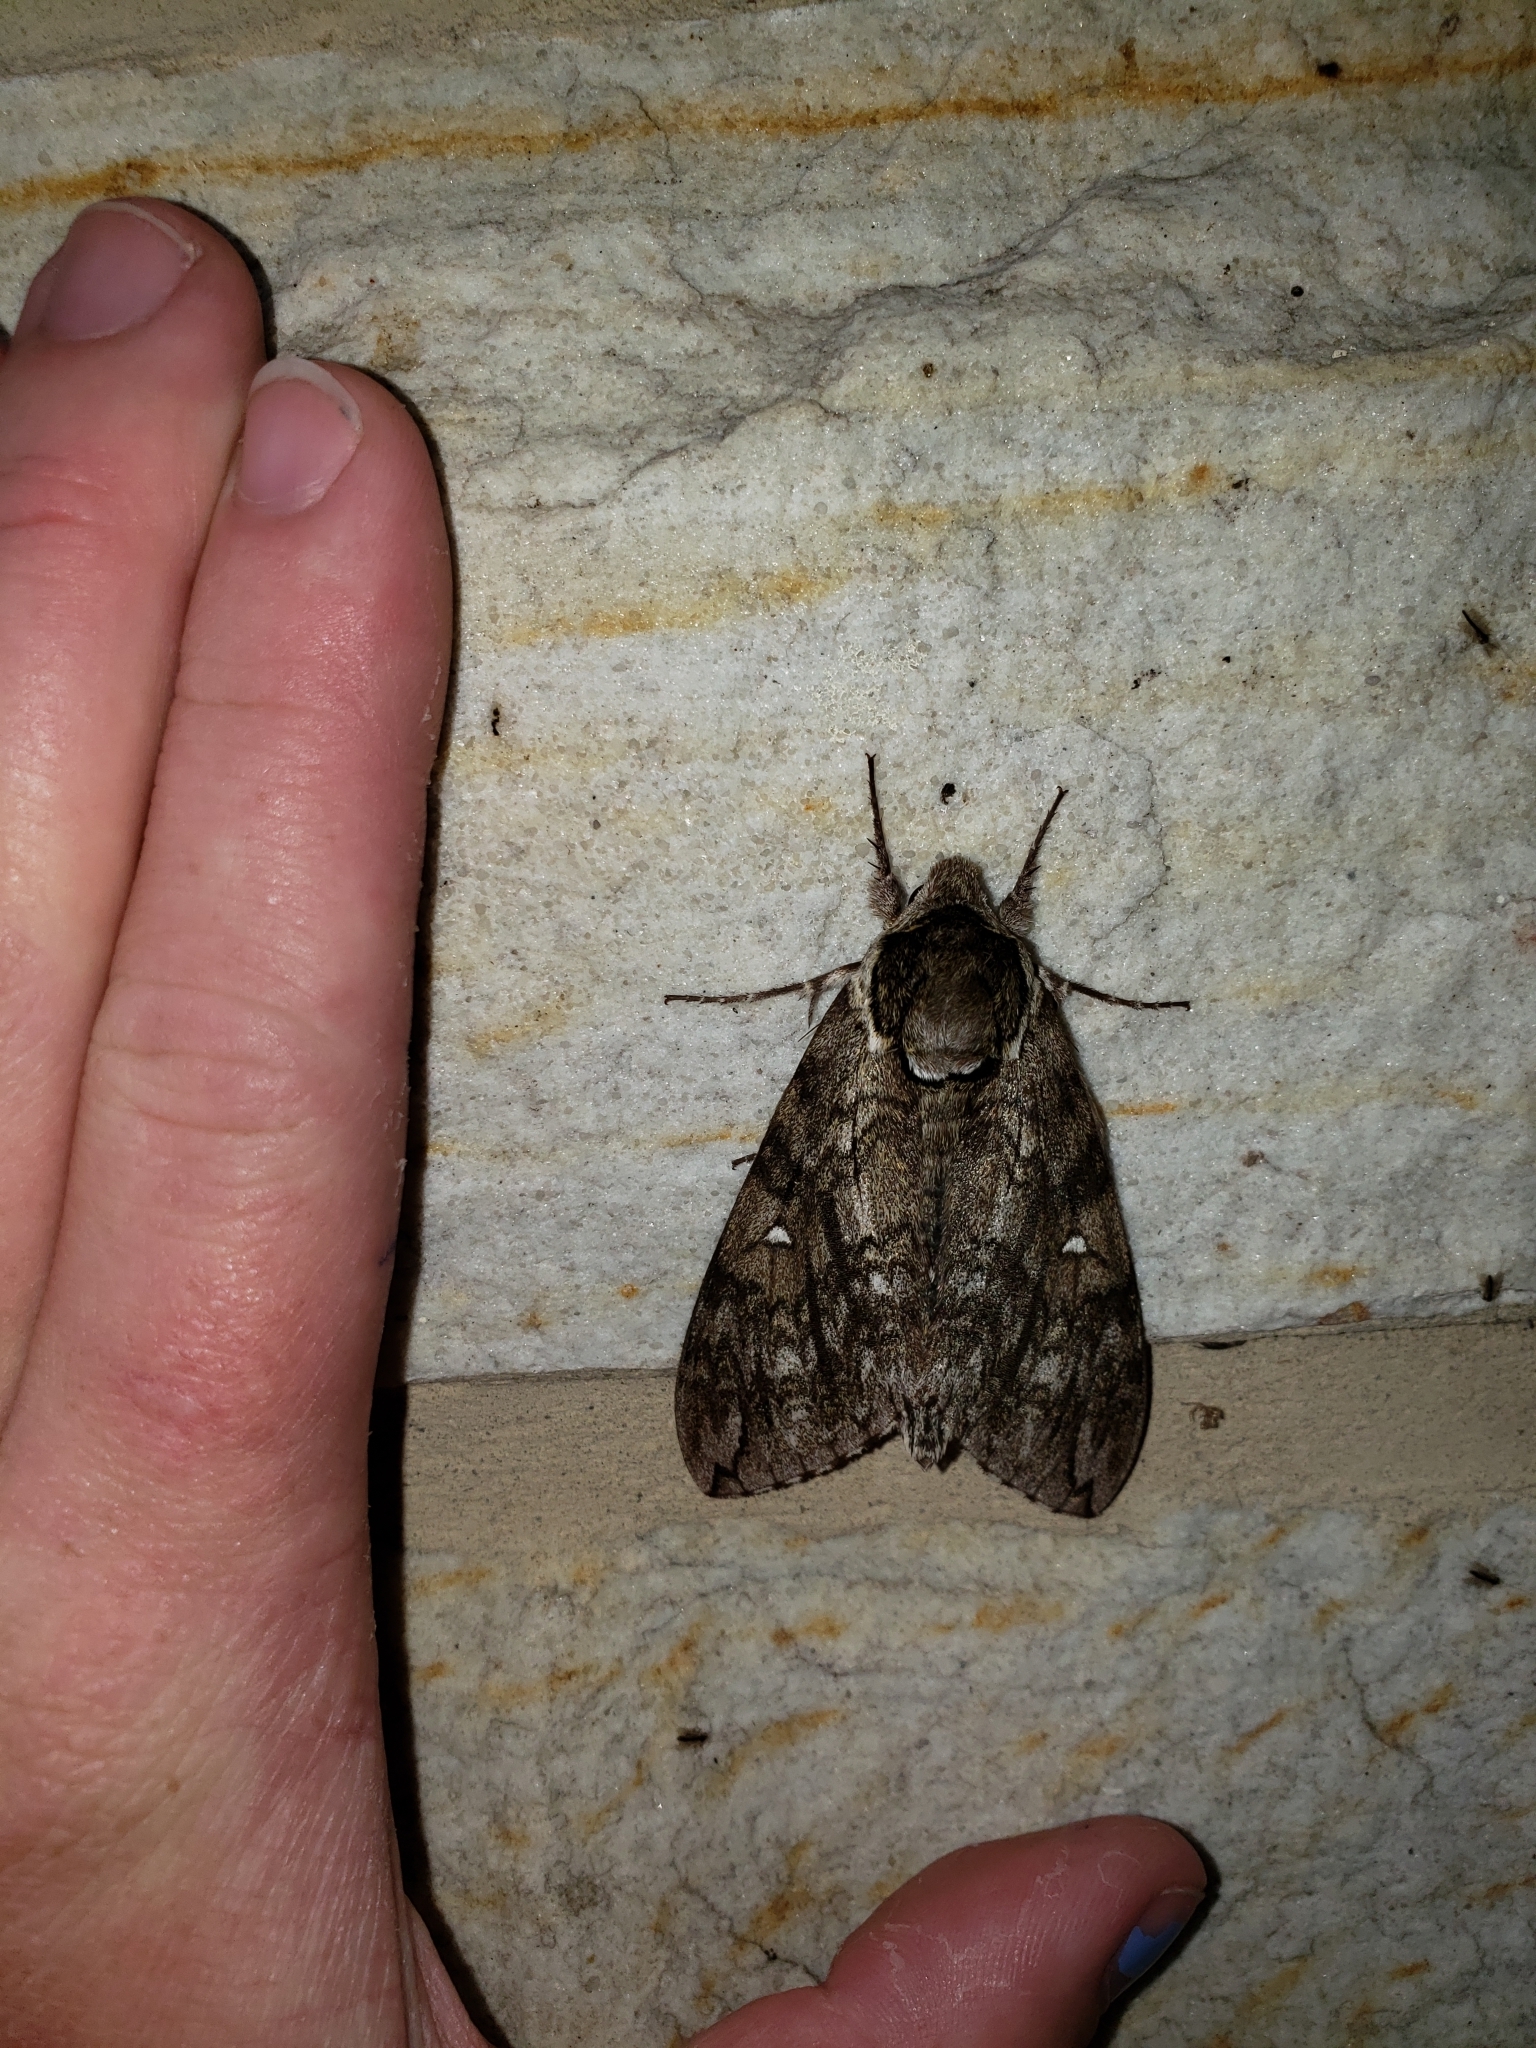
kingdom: Animalia
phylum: Arthropoda
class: Insecta
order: Lepidoptera
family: Sphingidae
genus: Ceratomia
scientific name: Ceratomia undulosa
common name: Waved sphinx
